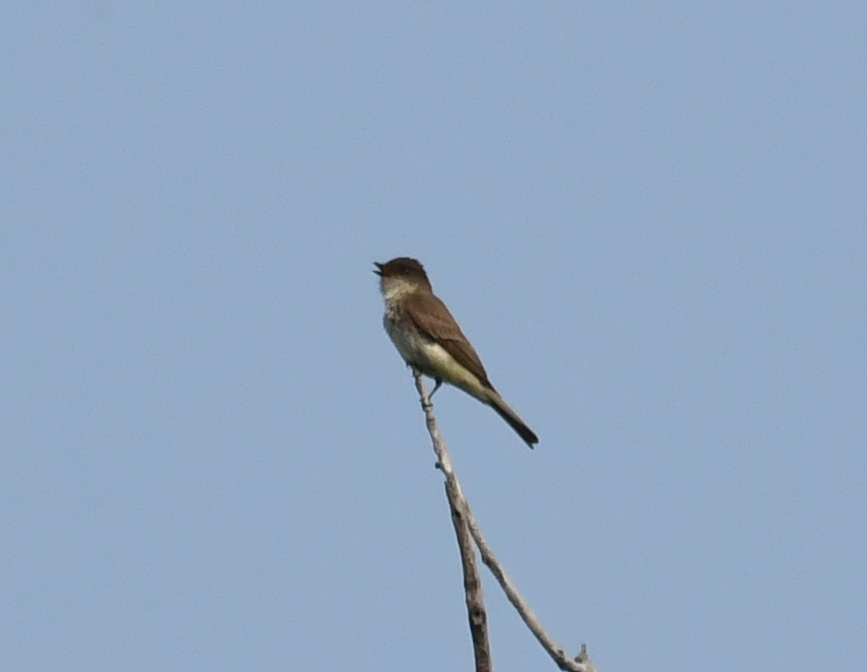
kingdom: Animalia
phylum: Chordata
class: Aves
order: Passeriformes
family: Tyrannidae
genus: Sayornis
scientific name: Sayornis phoebe
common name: Eastern phoebe
